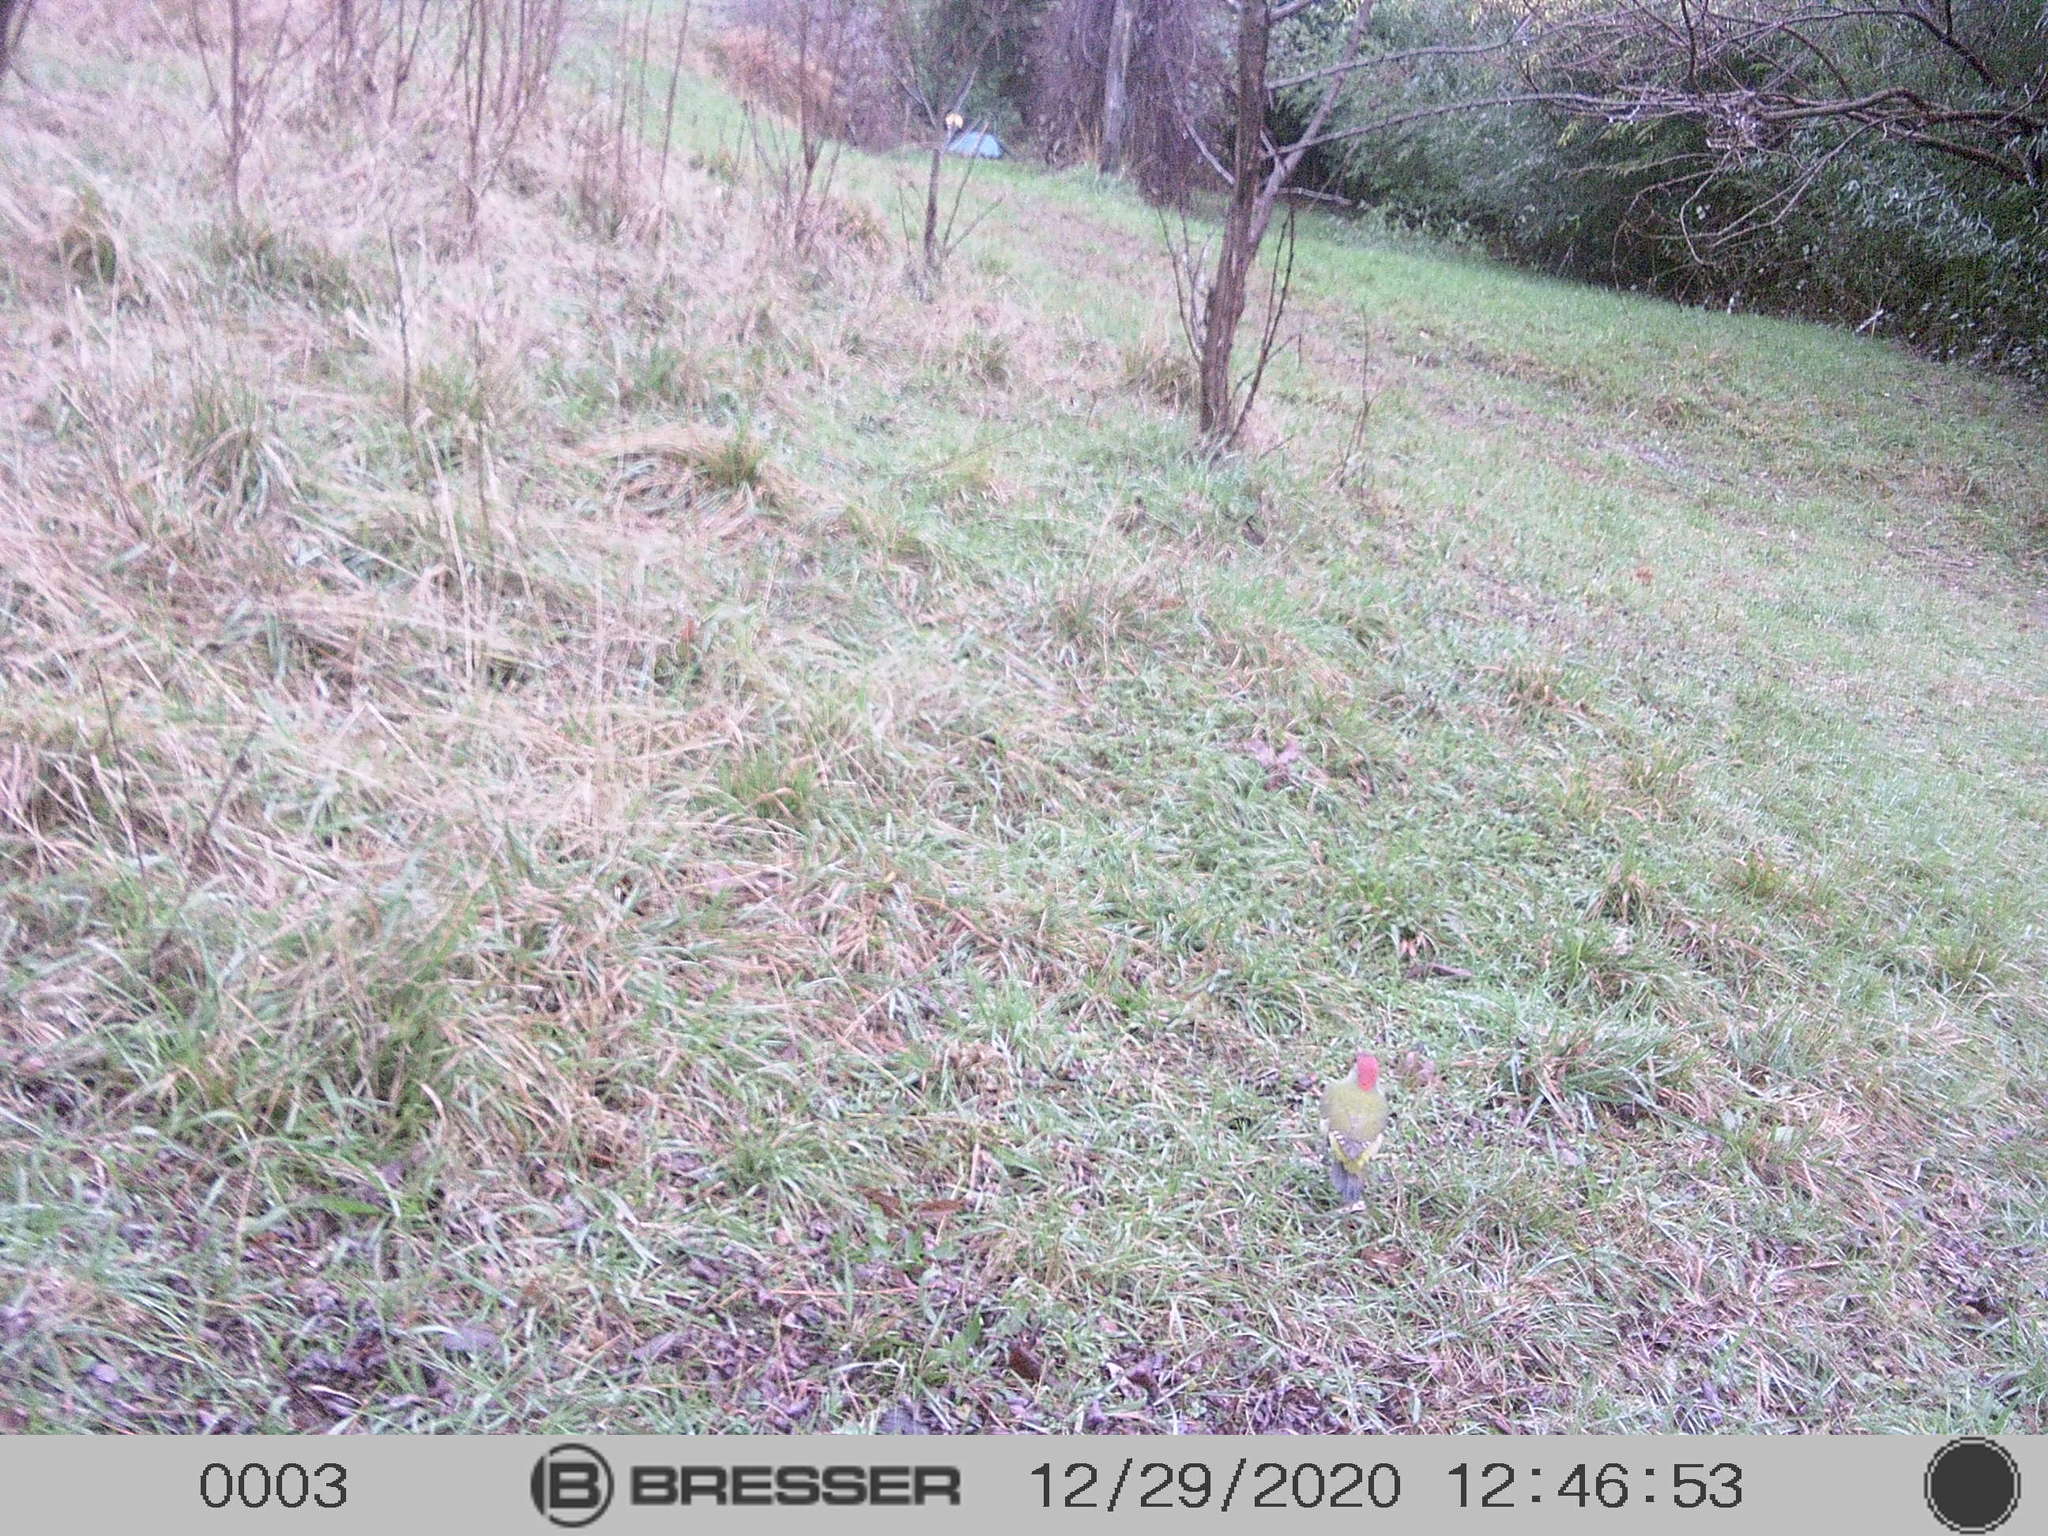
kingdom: Animalia
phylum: Chordata
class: Aves
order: Piciformes
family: Picidae
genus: Picus
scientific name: Picus viridis
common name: European green woodpecker
